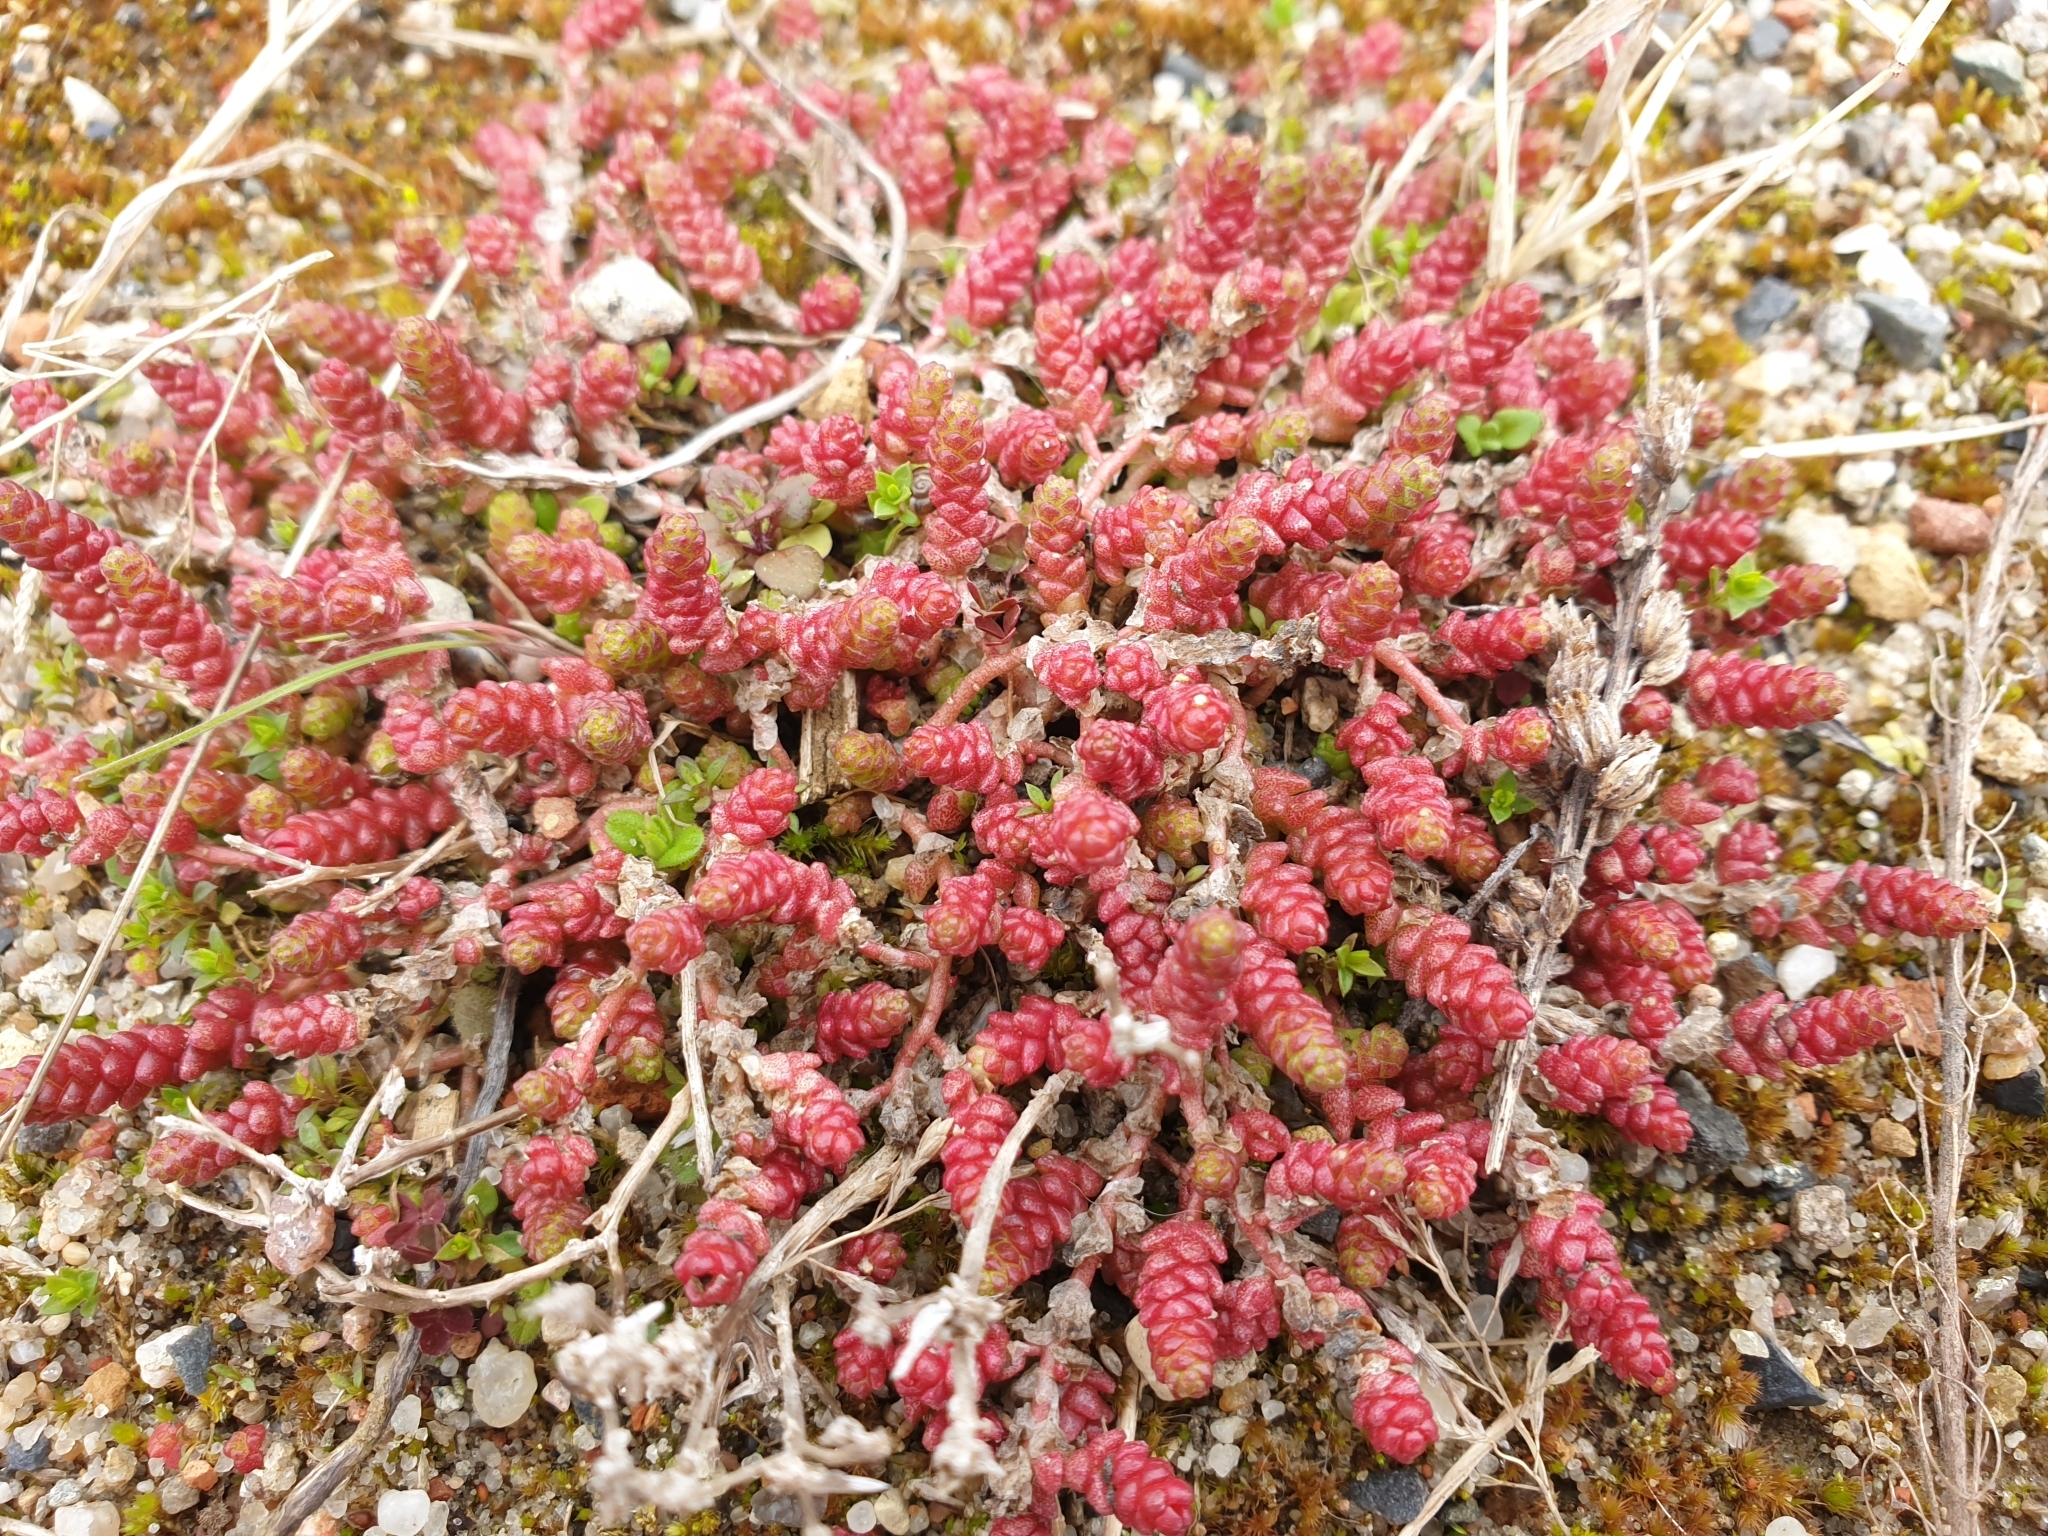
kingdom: Plantae
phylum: Tracheophyta
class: Magnoliopsida
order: Saxifragales
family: Crassulaceae
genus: Sedum
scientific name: Sedum acre
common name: Biting stonecrop
